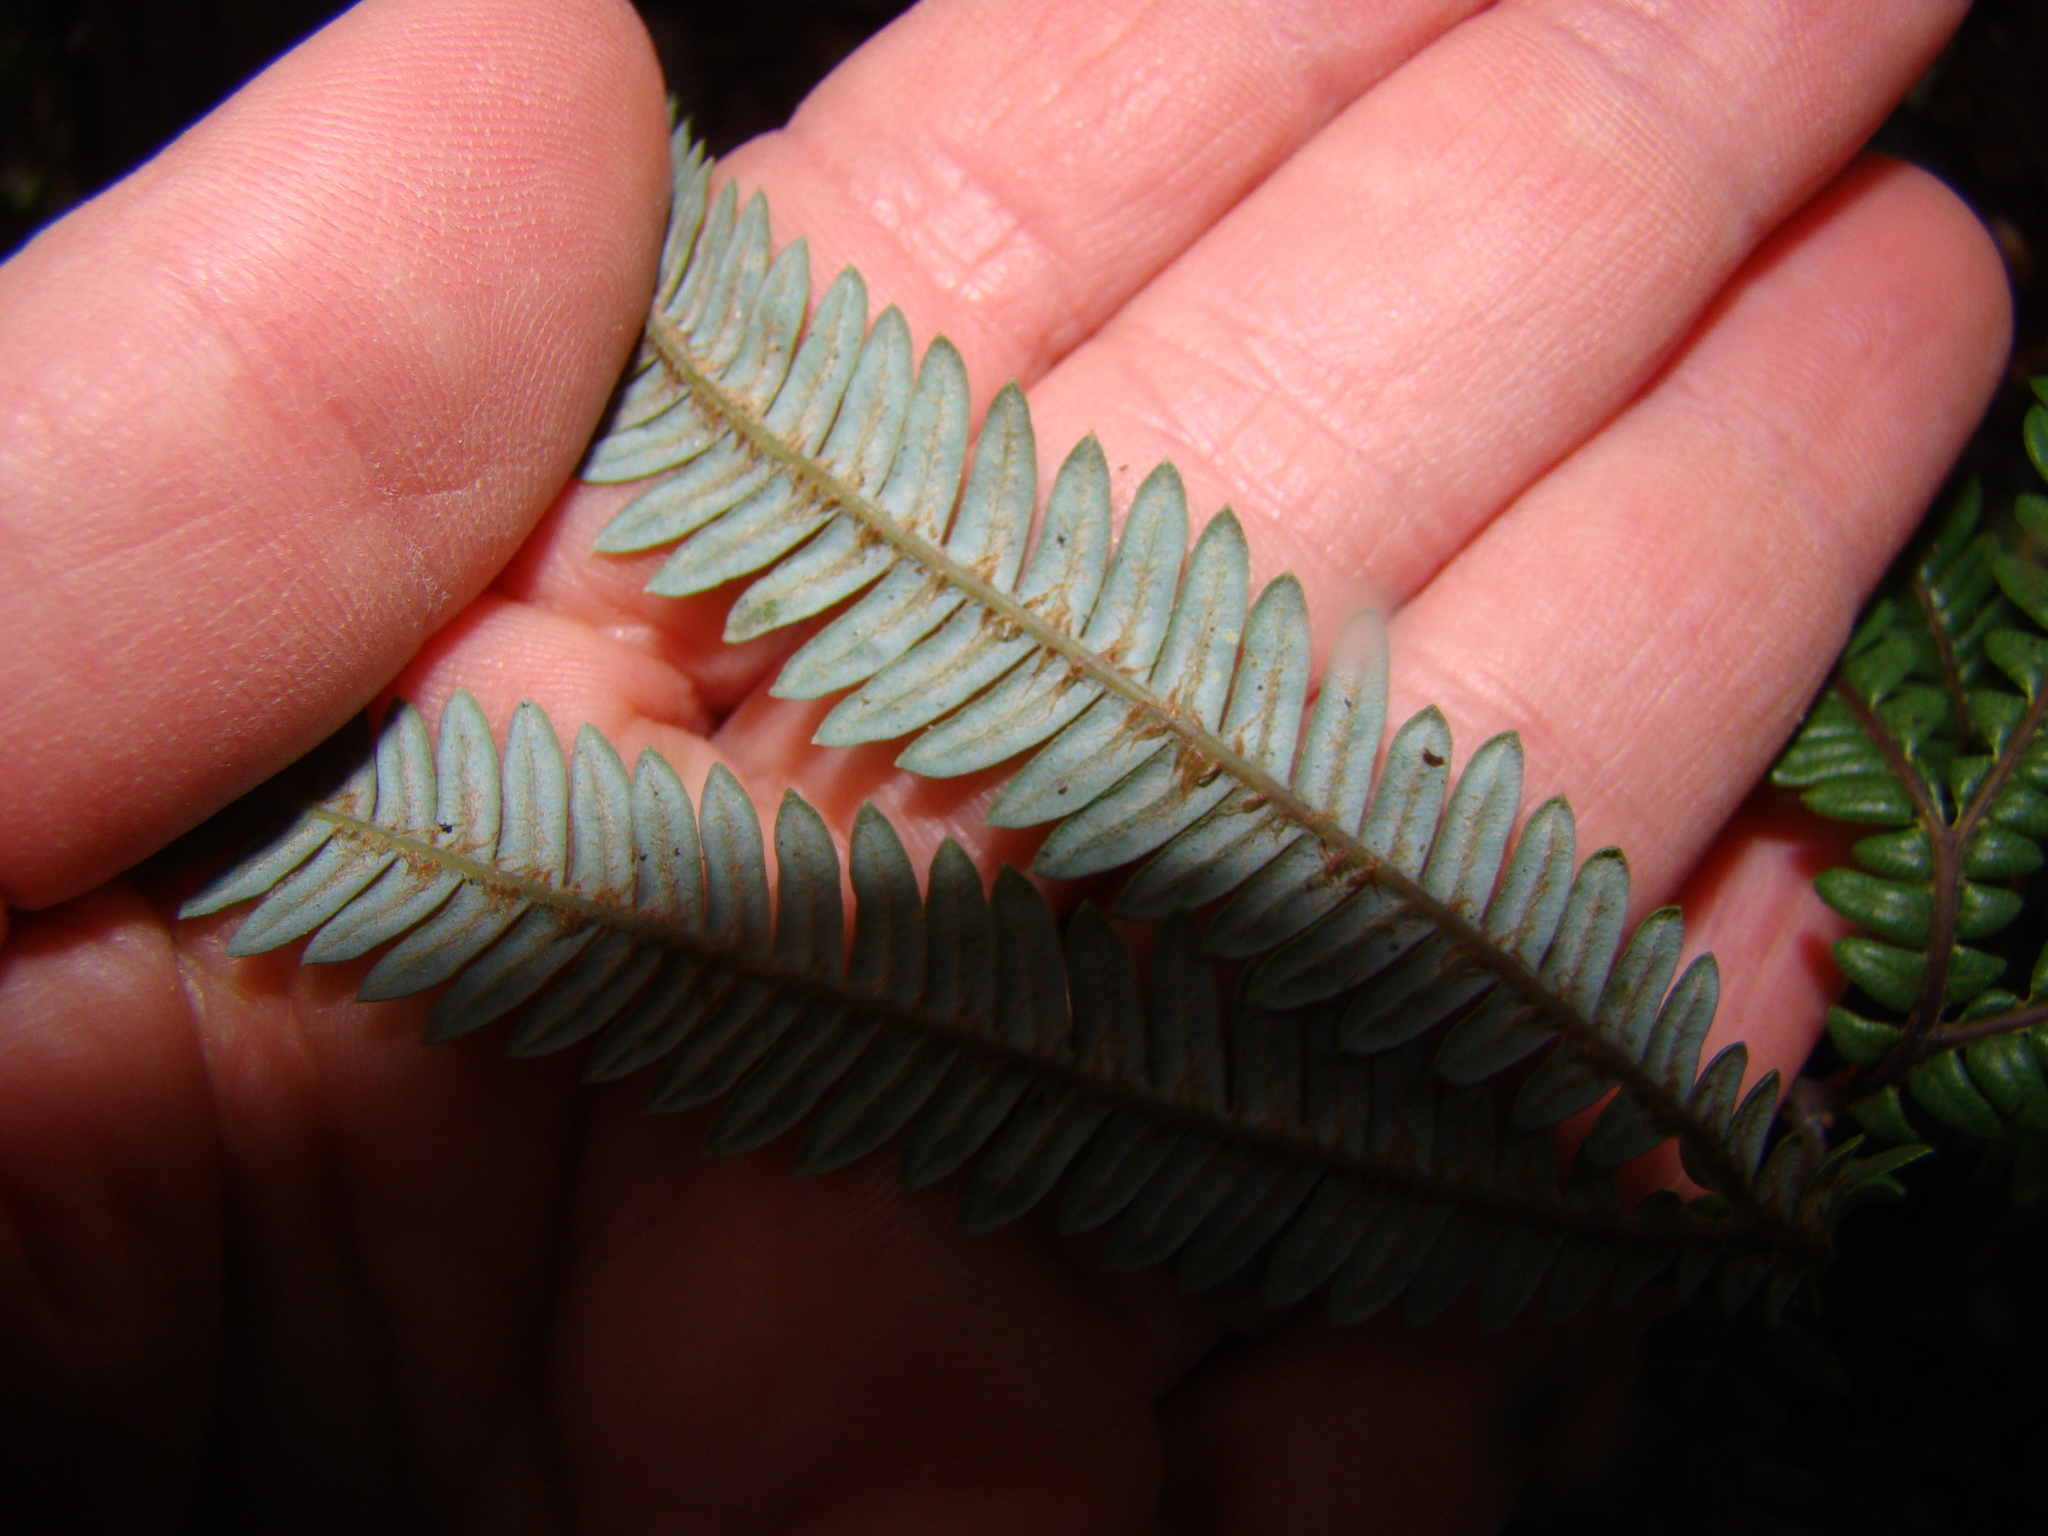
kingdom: Plantae
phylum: Tracheophyta
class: Polypodiopsida
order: Gleicheniales
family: Gleicheniaceae
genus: Sticherus
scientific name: Sticherus cunninghamii
